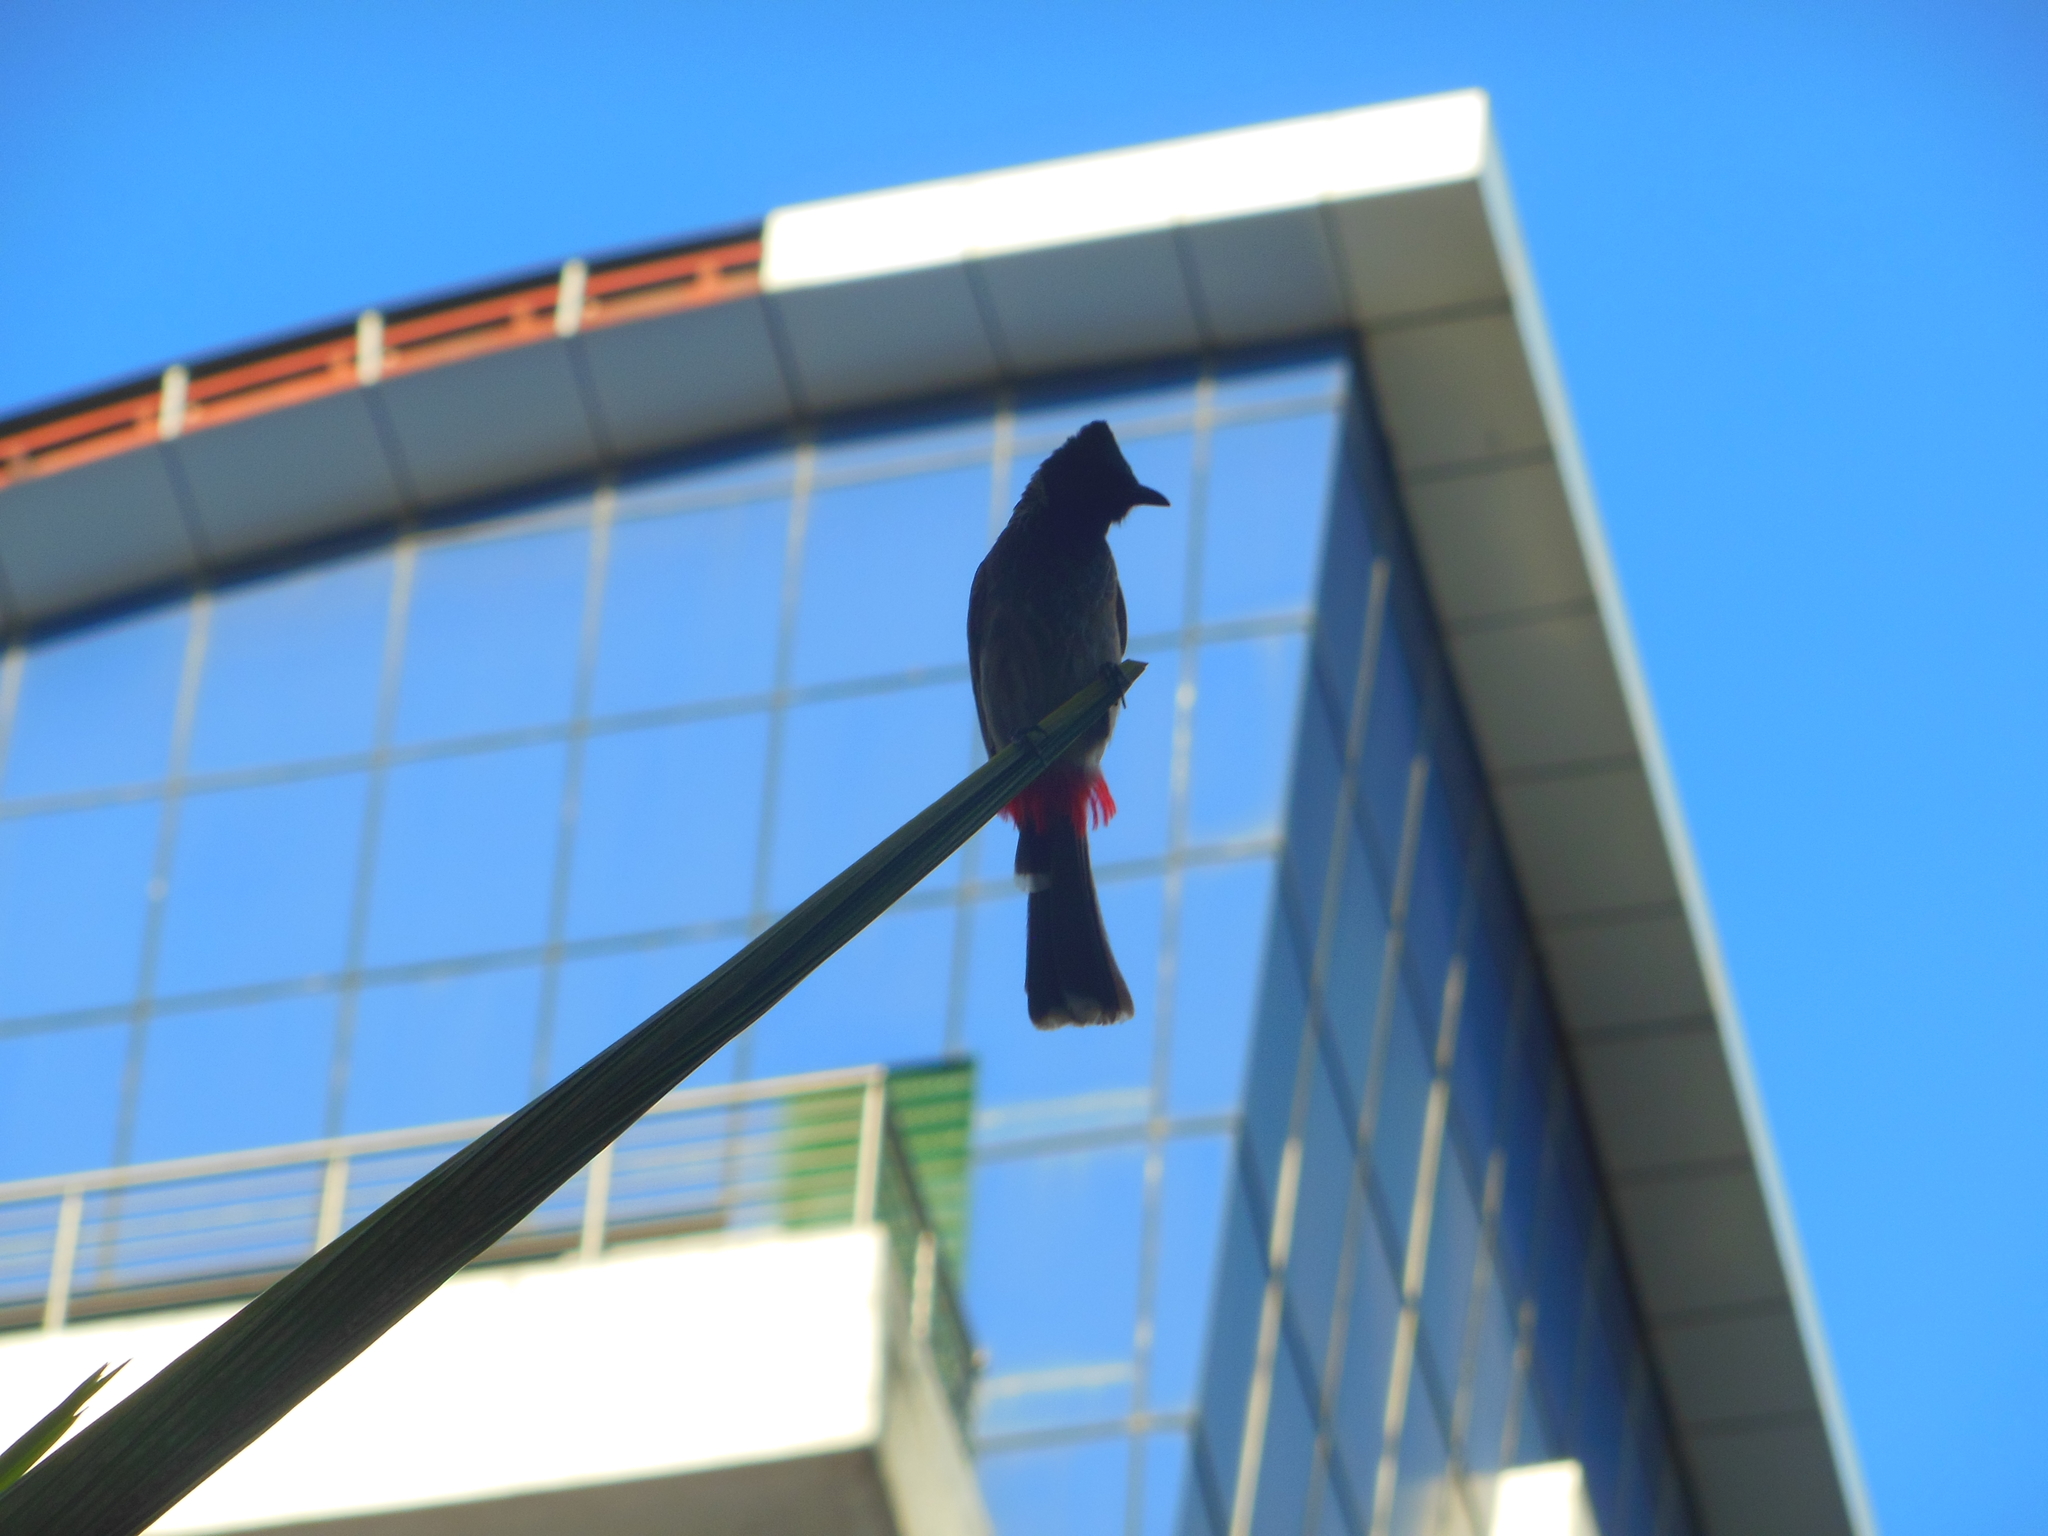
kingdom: Animalia
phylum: Chordata
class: Aves
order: Passeriformes
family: Pycnonotidae
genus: Pycnonotus
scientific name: Pycnonotus cafer
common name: Red-vented bulbul
